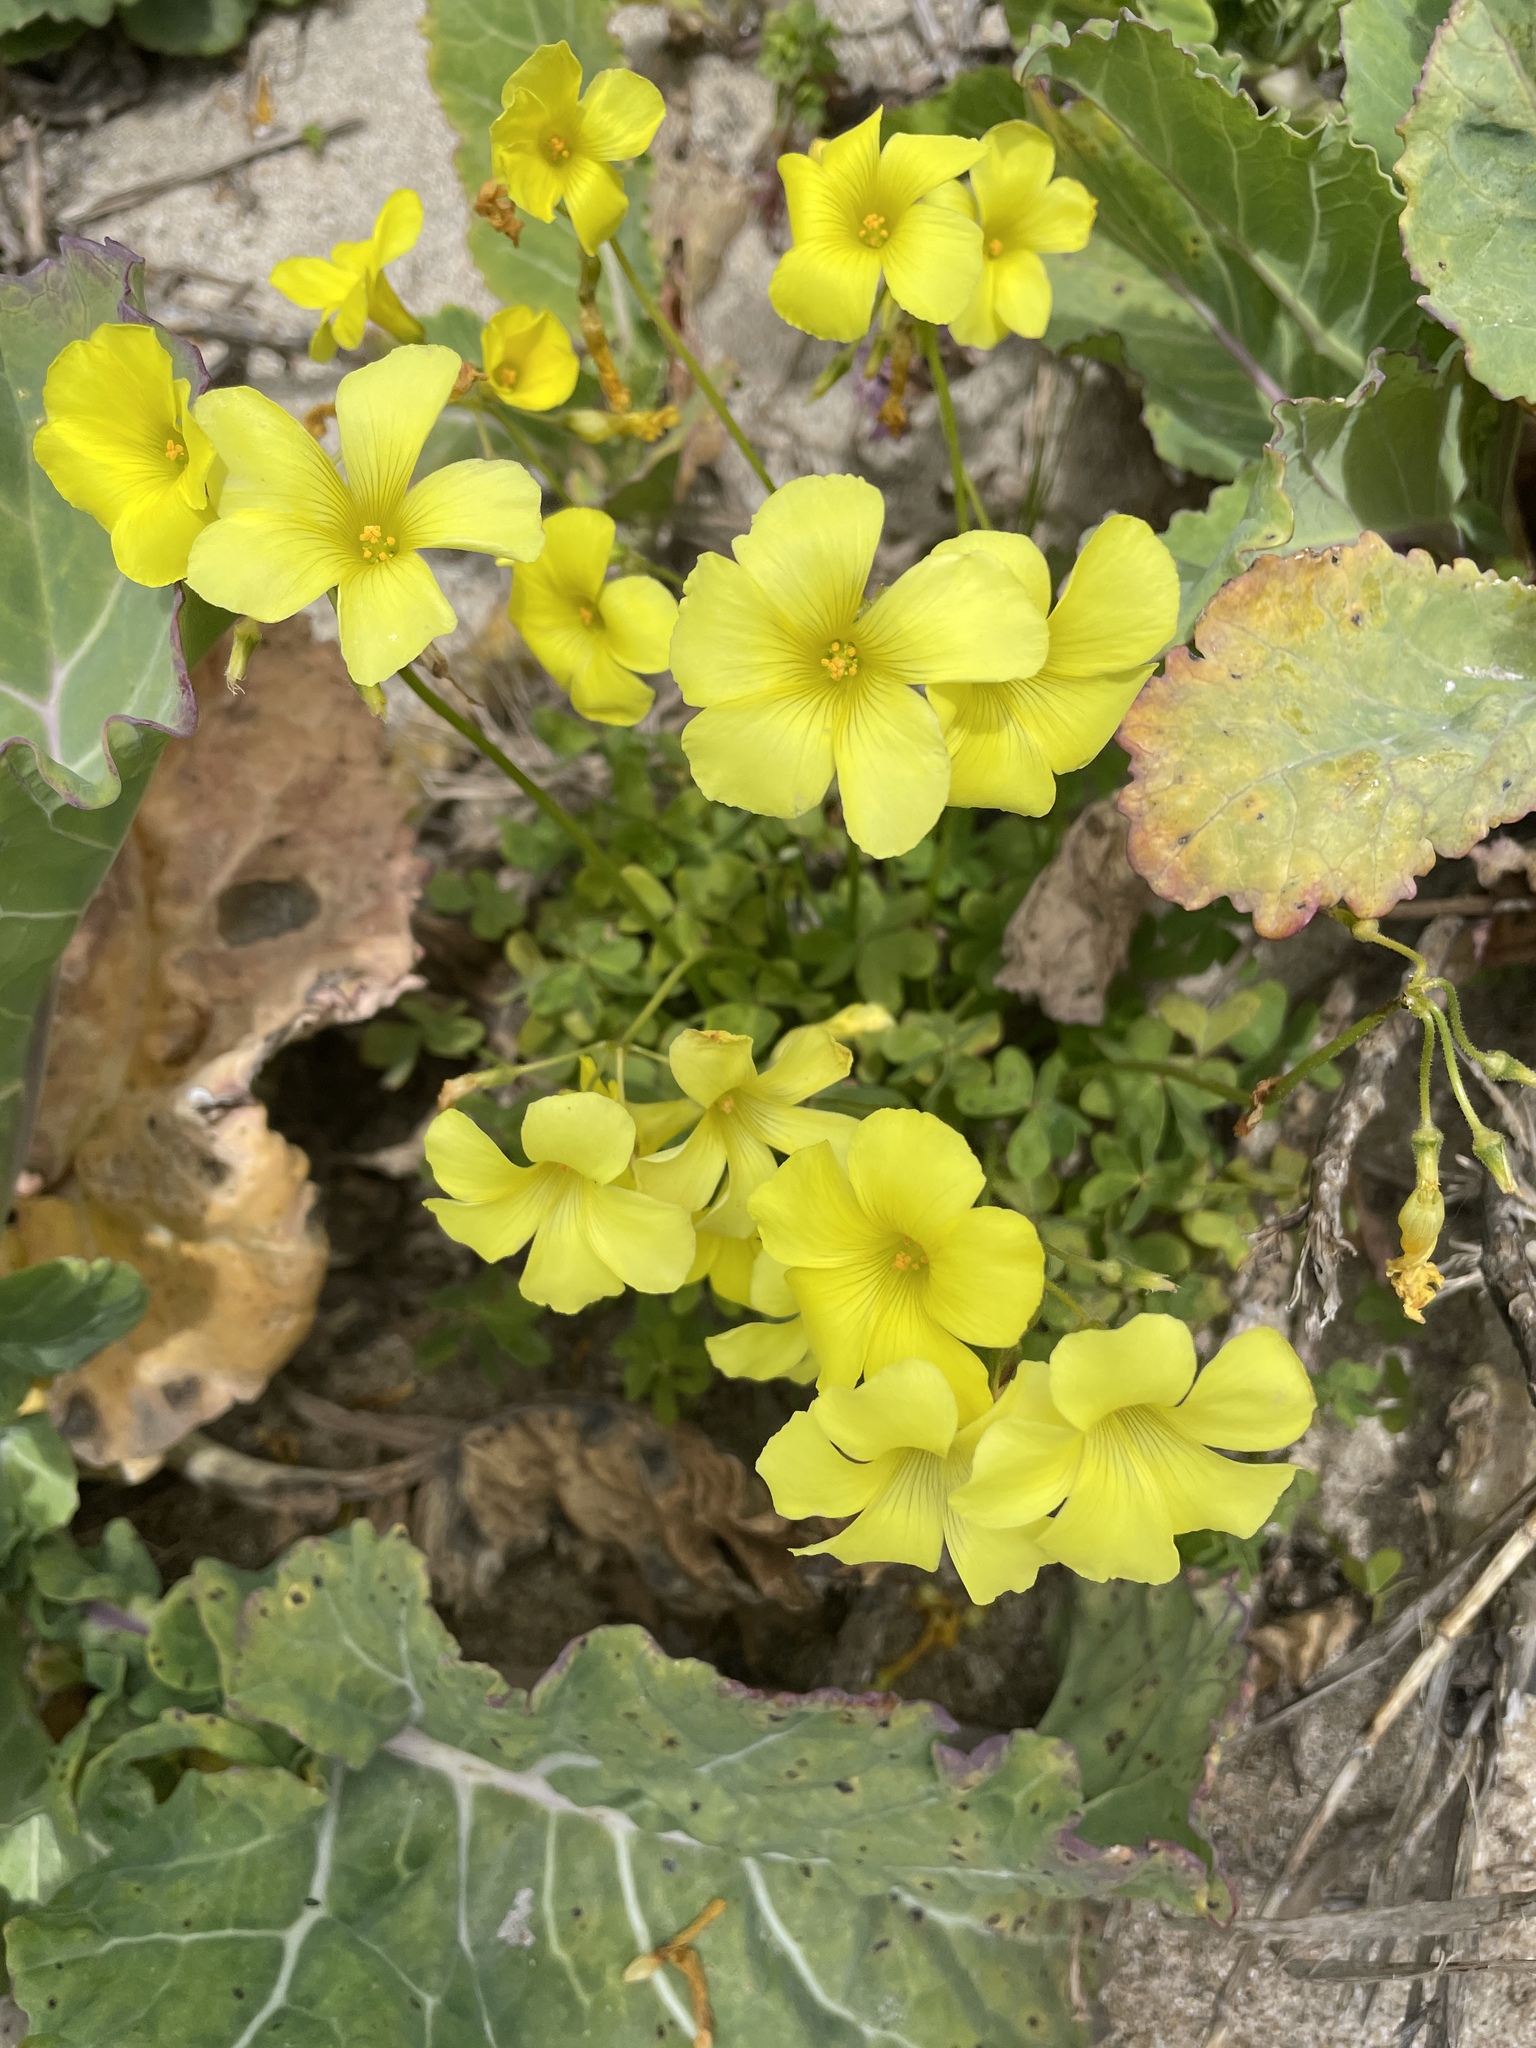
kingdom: Plantae
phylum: Tracheophyta
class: Magnoliopsida
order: Oxalidales
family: Oxalidaceae
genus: Oxalis
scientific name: Oxalis pes-caprae
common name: Bermuda-buttercup
